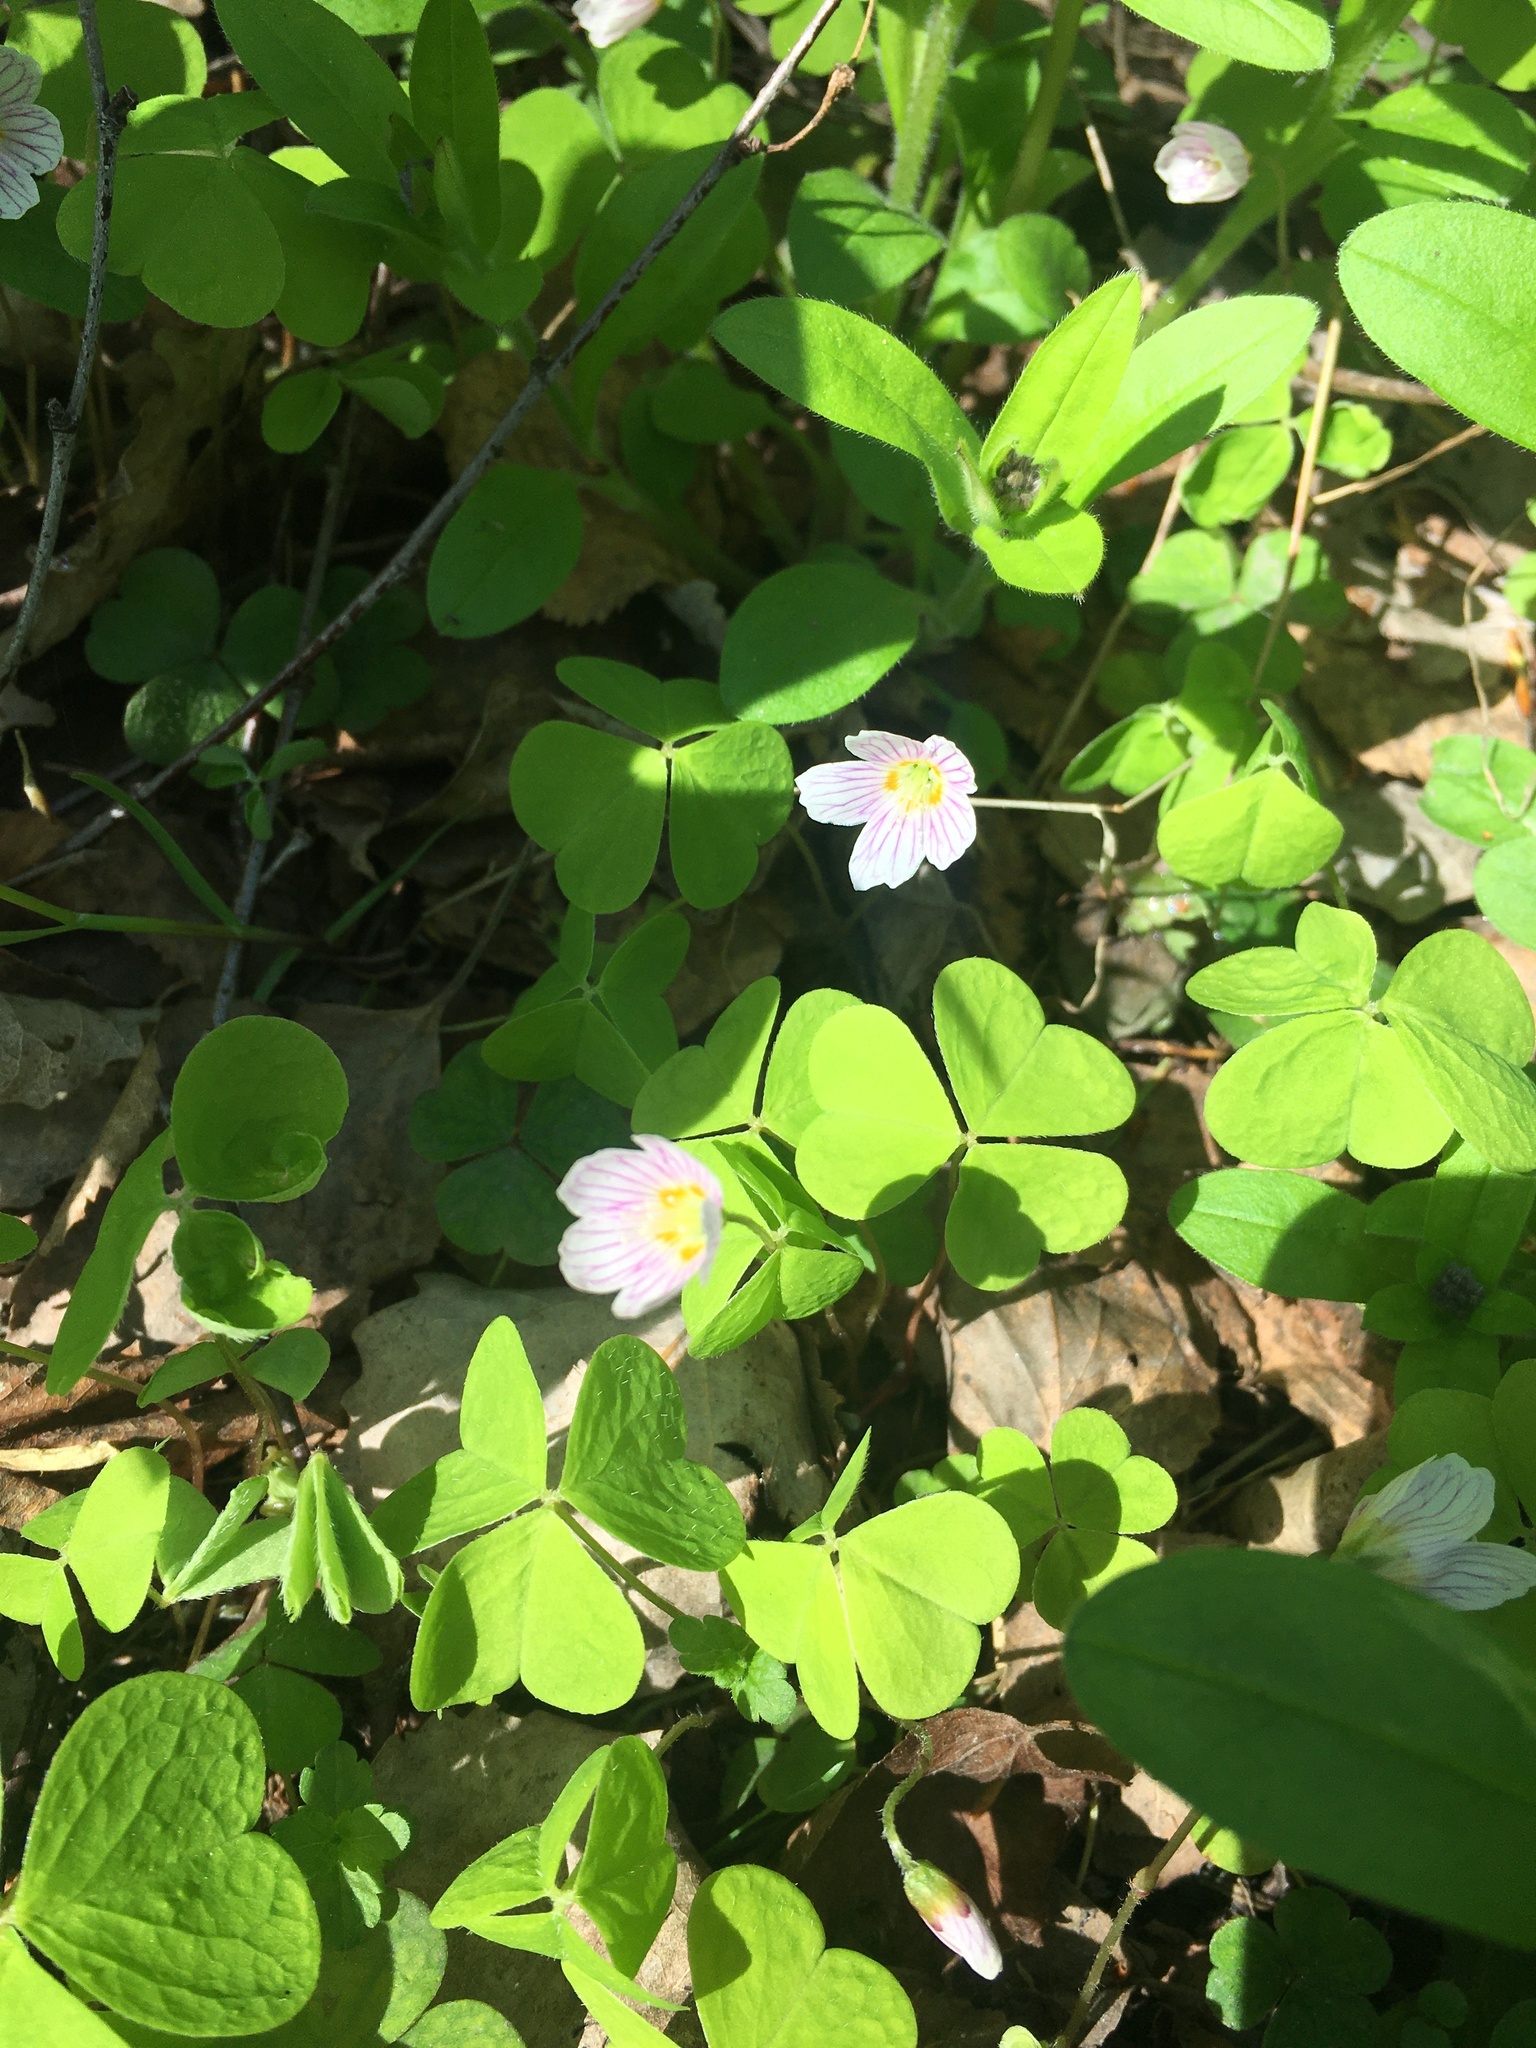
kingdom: Plantae
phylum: Tracheophyta
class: Magnoliopsida
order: Oxalidales
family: Oxalidaceae
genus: Oxalis
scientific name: Oxalis acetosella
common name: Wood-sorrel
